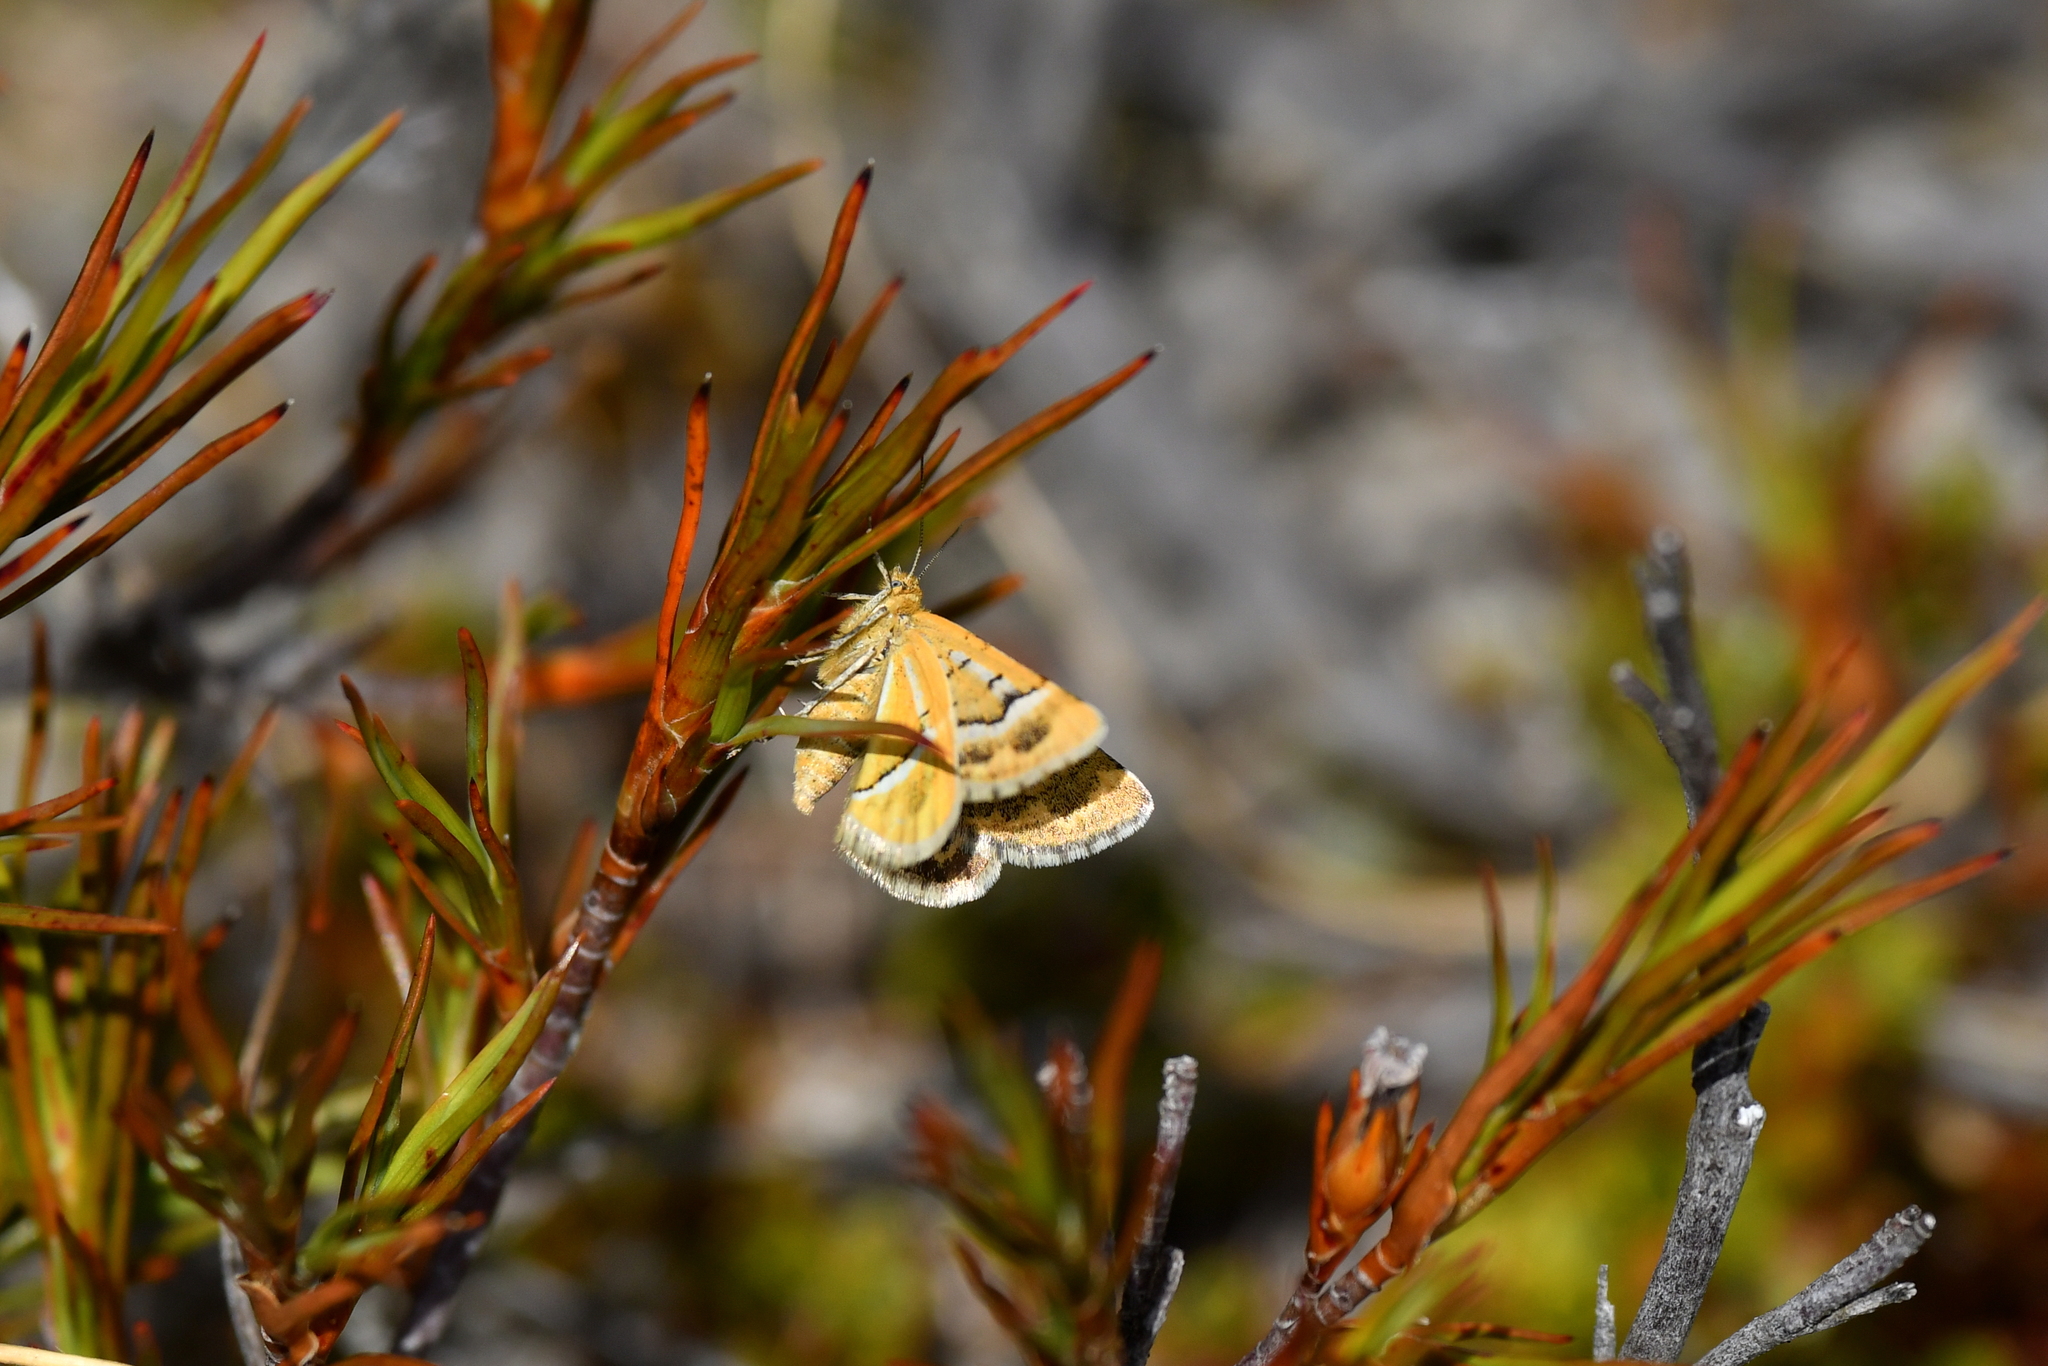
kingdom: Animalia
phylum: Arthropoda
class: Insecta
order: Lepidoptera
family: Geometridae
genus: Notoreas
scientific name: Notoreas paradelpha
